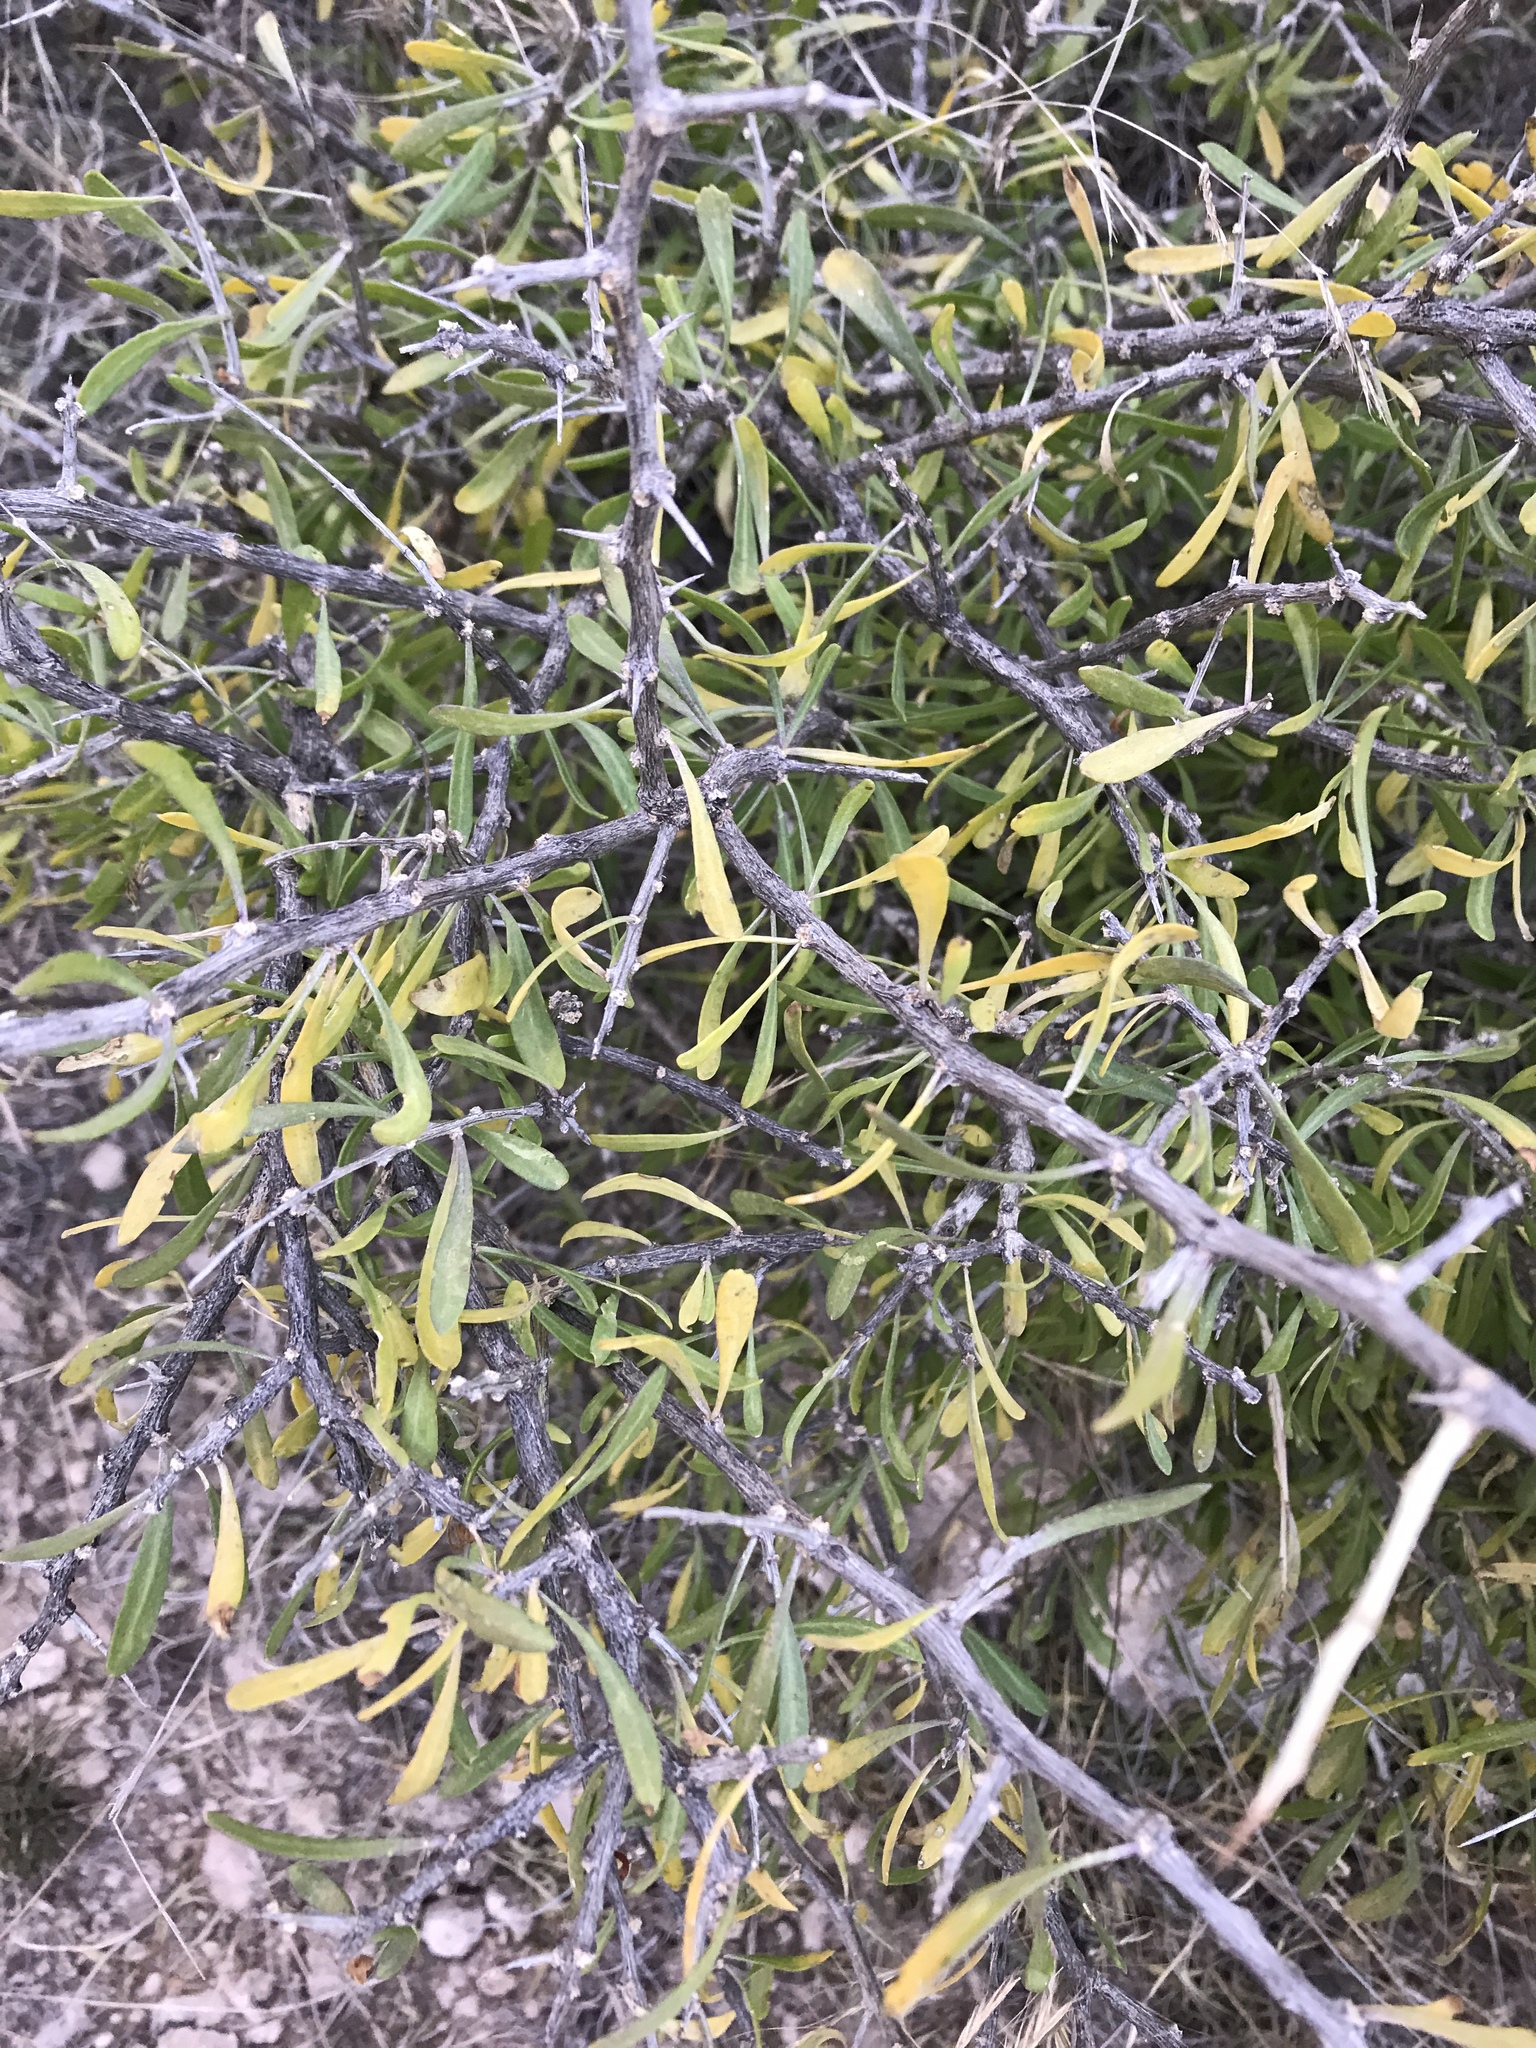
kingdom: Plantae
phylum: Tracheophyta
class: Magnoliopsida
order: Rosales
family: Rhamnaceae
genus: Sarcomphalus
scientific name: Sarcomphalus obtusifolius
